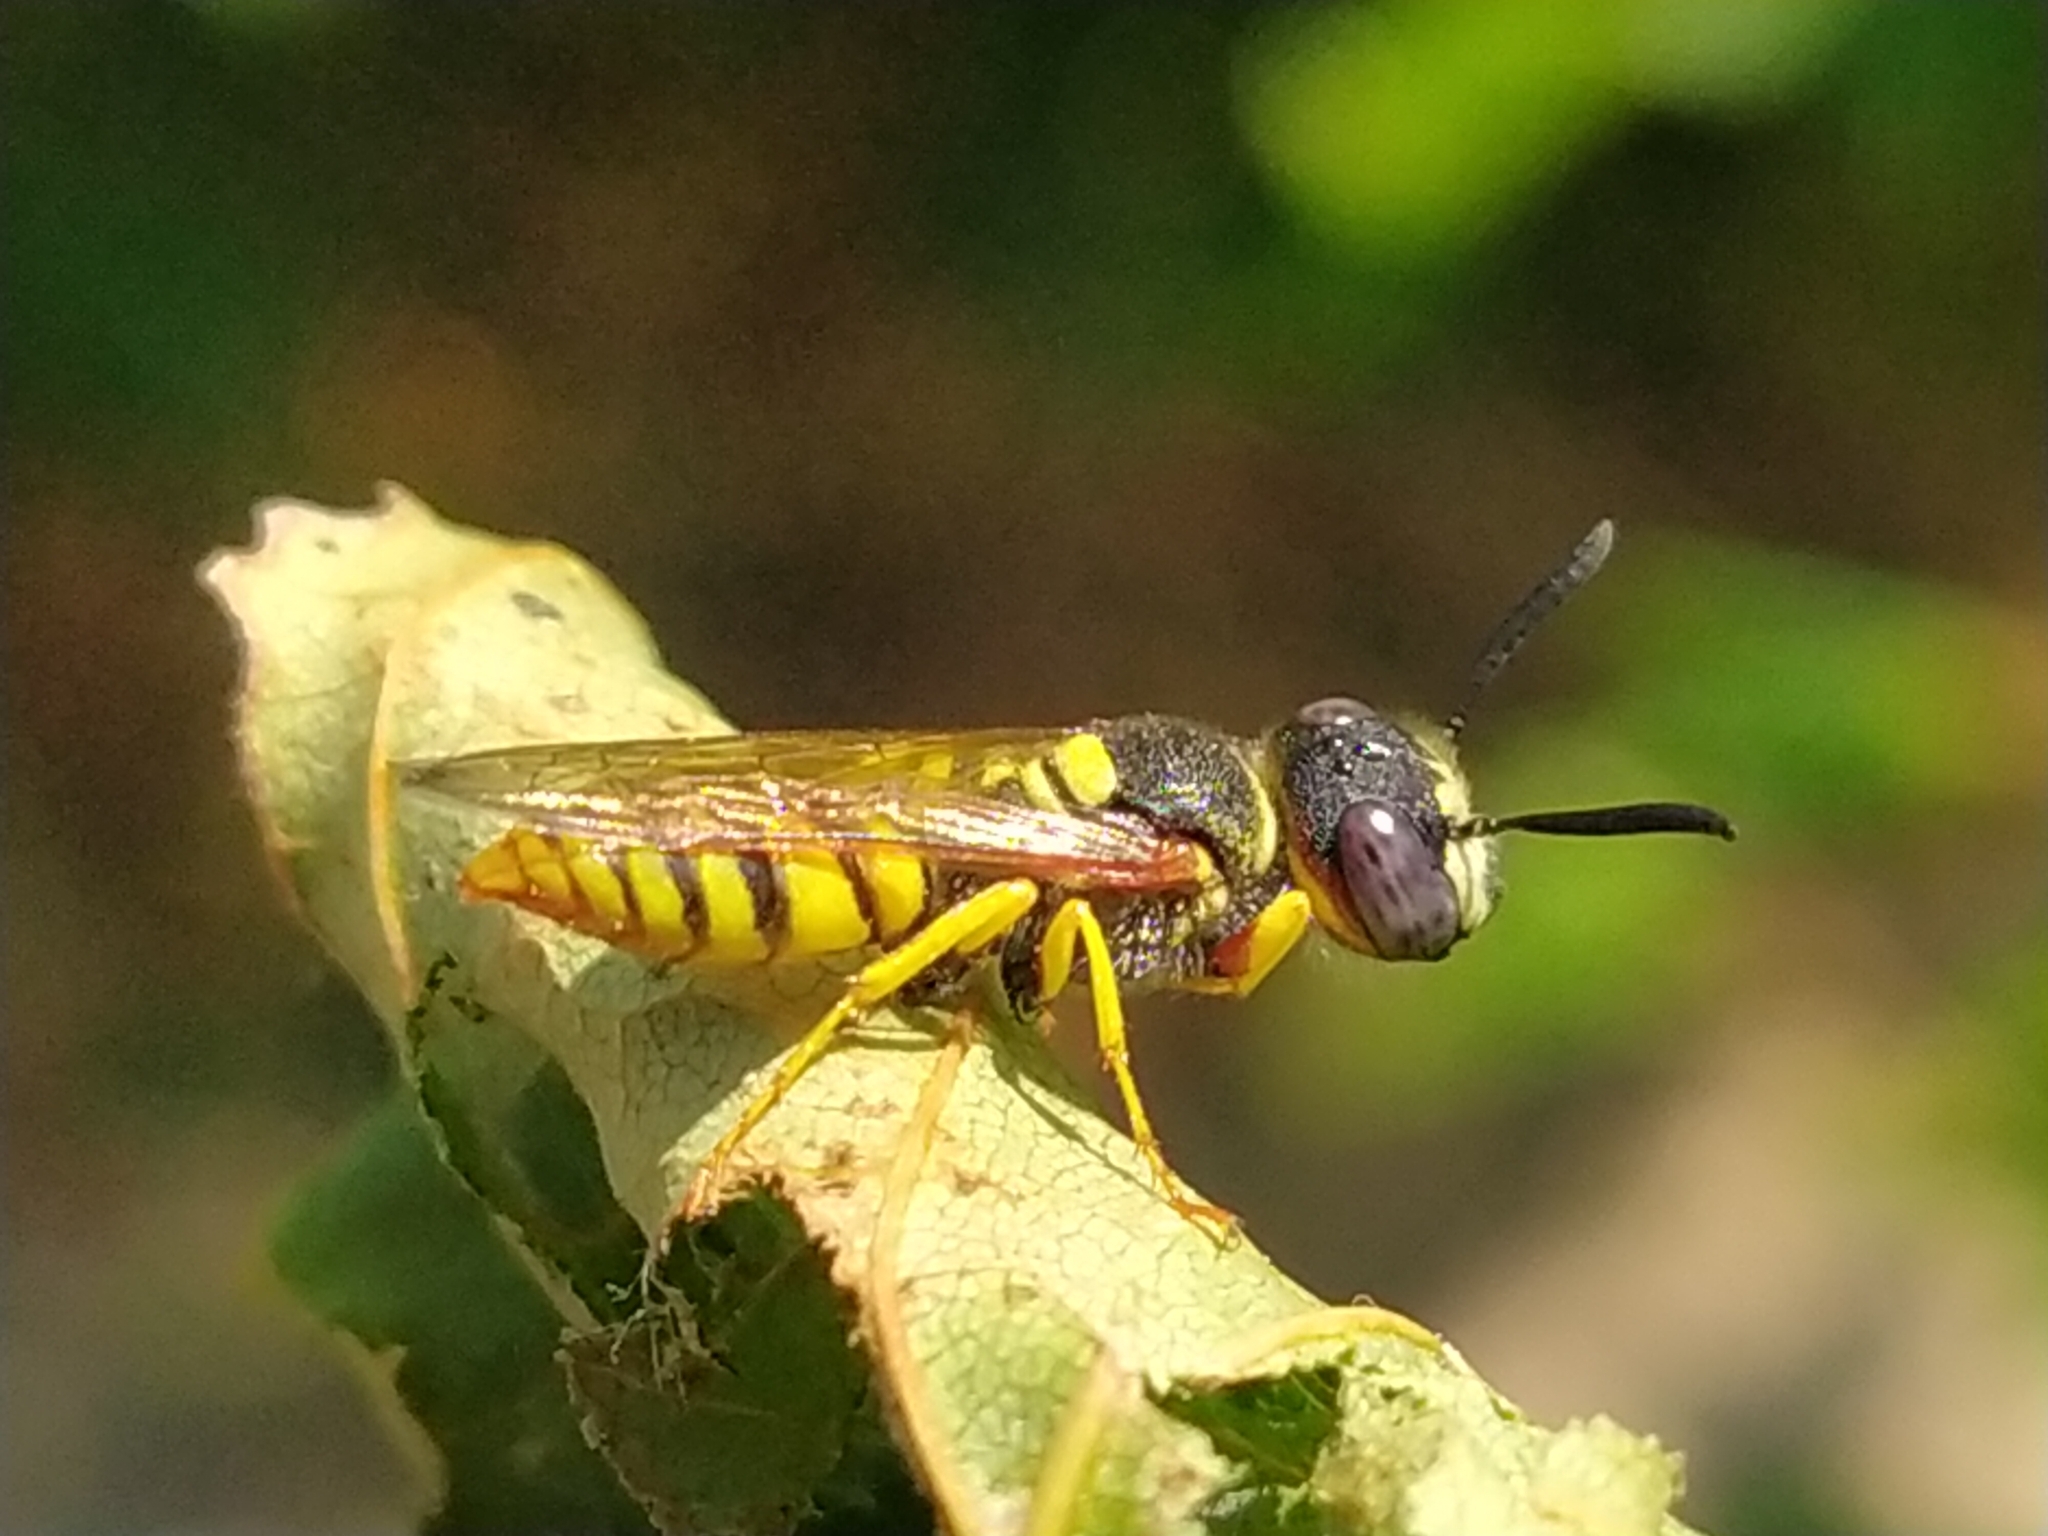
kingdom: Animalia
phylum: Arthropoda
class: Insecta
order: Hymenoptera
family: Crabronidae
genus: Philanthus
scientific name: Philanthus triangulum
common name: Bee wolf
